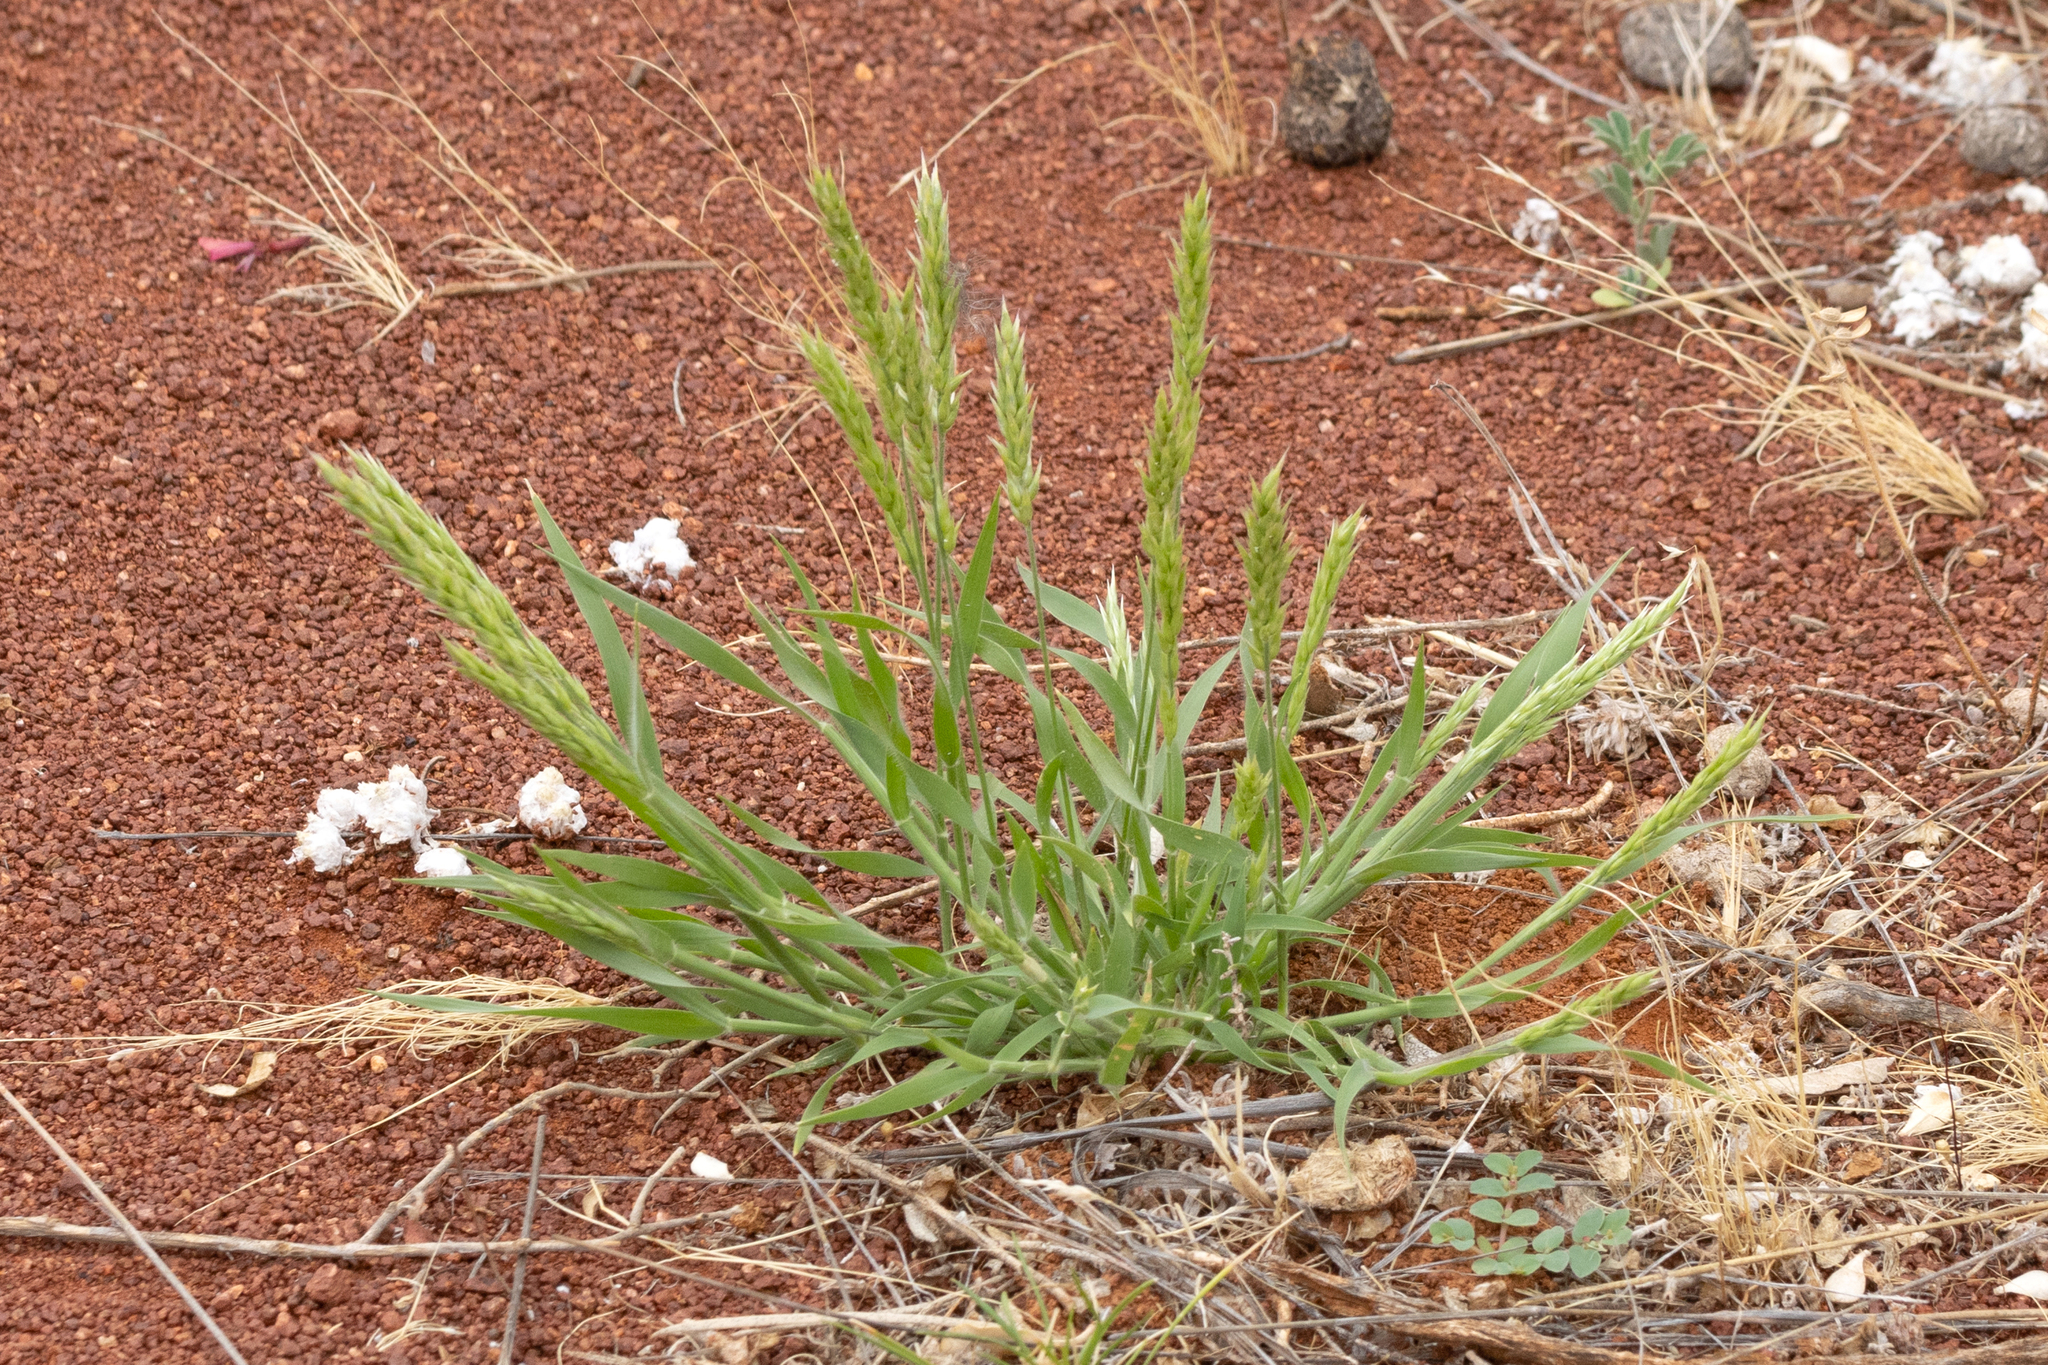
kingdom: Plantae
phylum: Tracheophyta
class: Liliopsida
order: Poales
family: Poaceae
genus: Enneapogon
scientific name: Enneapogon polyphyllus
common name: Leafy nineawn
